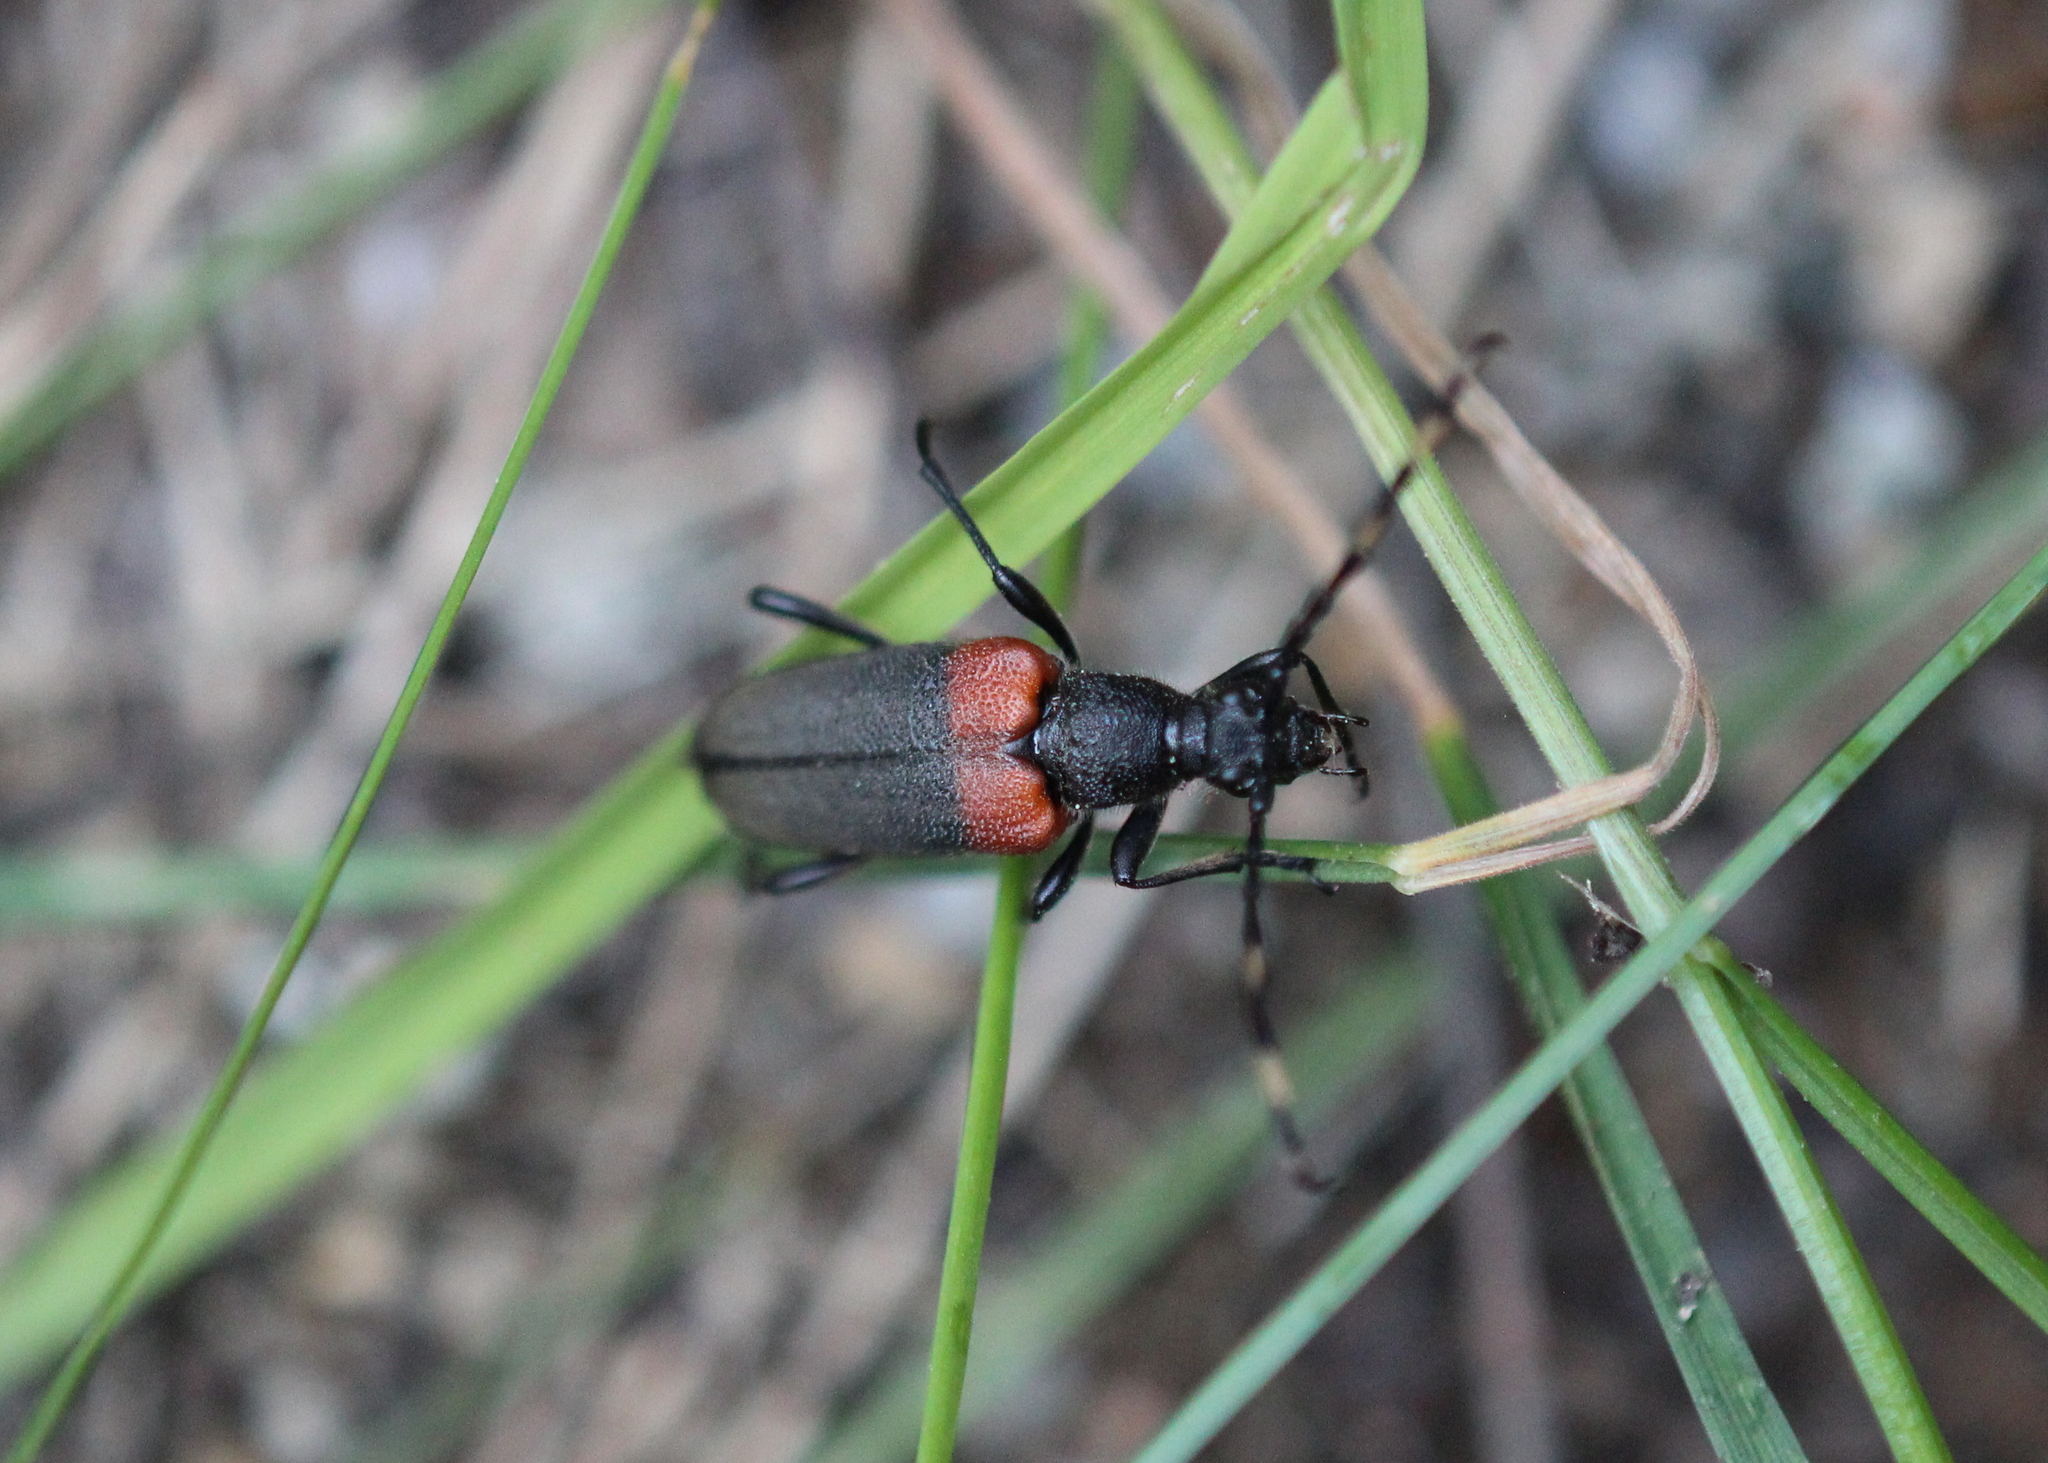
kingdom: Animalia
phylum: Arthropoda
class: Insecta
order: Coleoptera
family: Cerambycidae
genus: Stictoleptura
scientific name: Stictoleptura canadensis
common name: Red-shouldered pine borer
